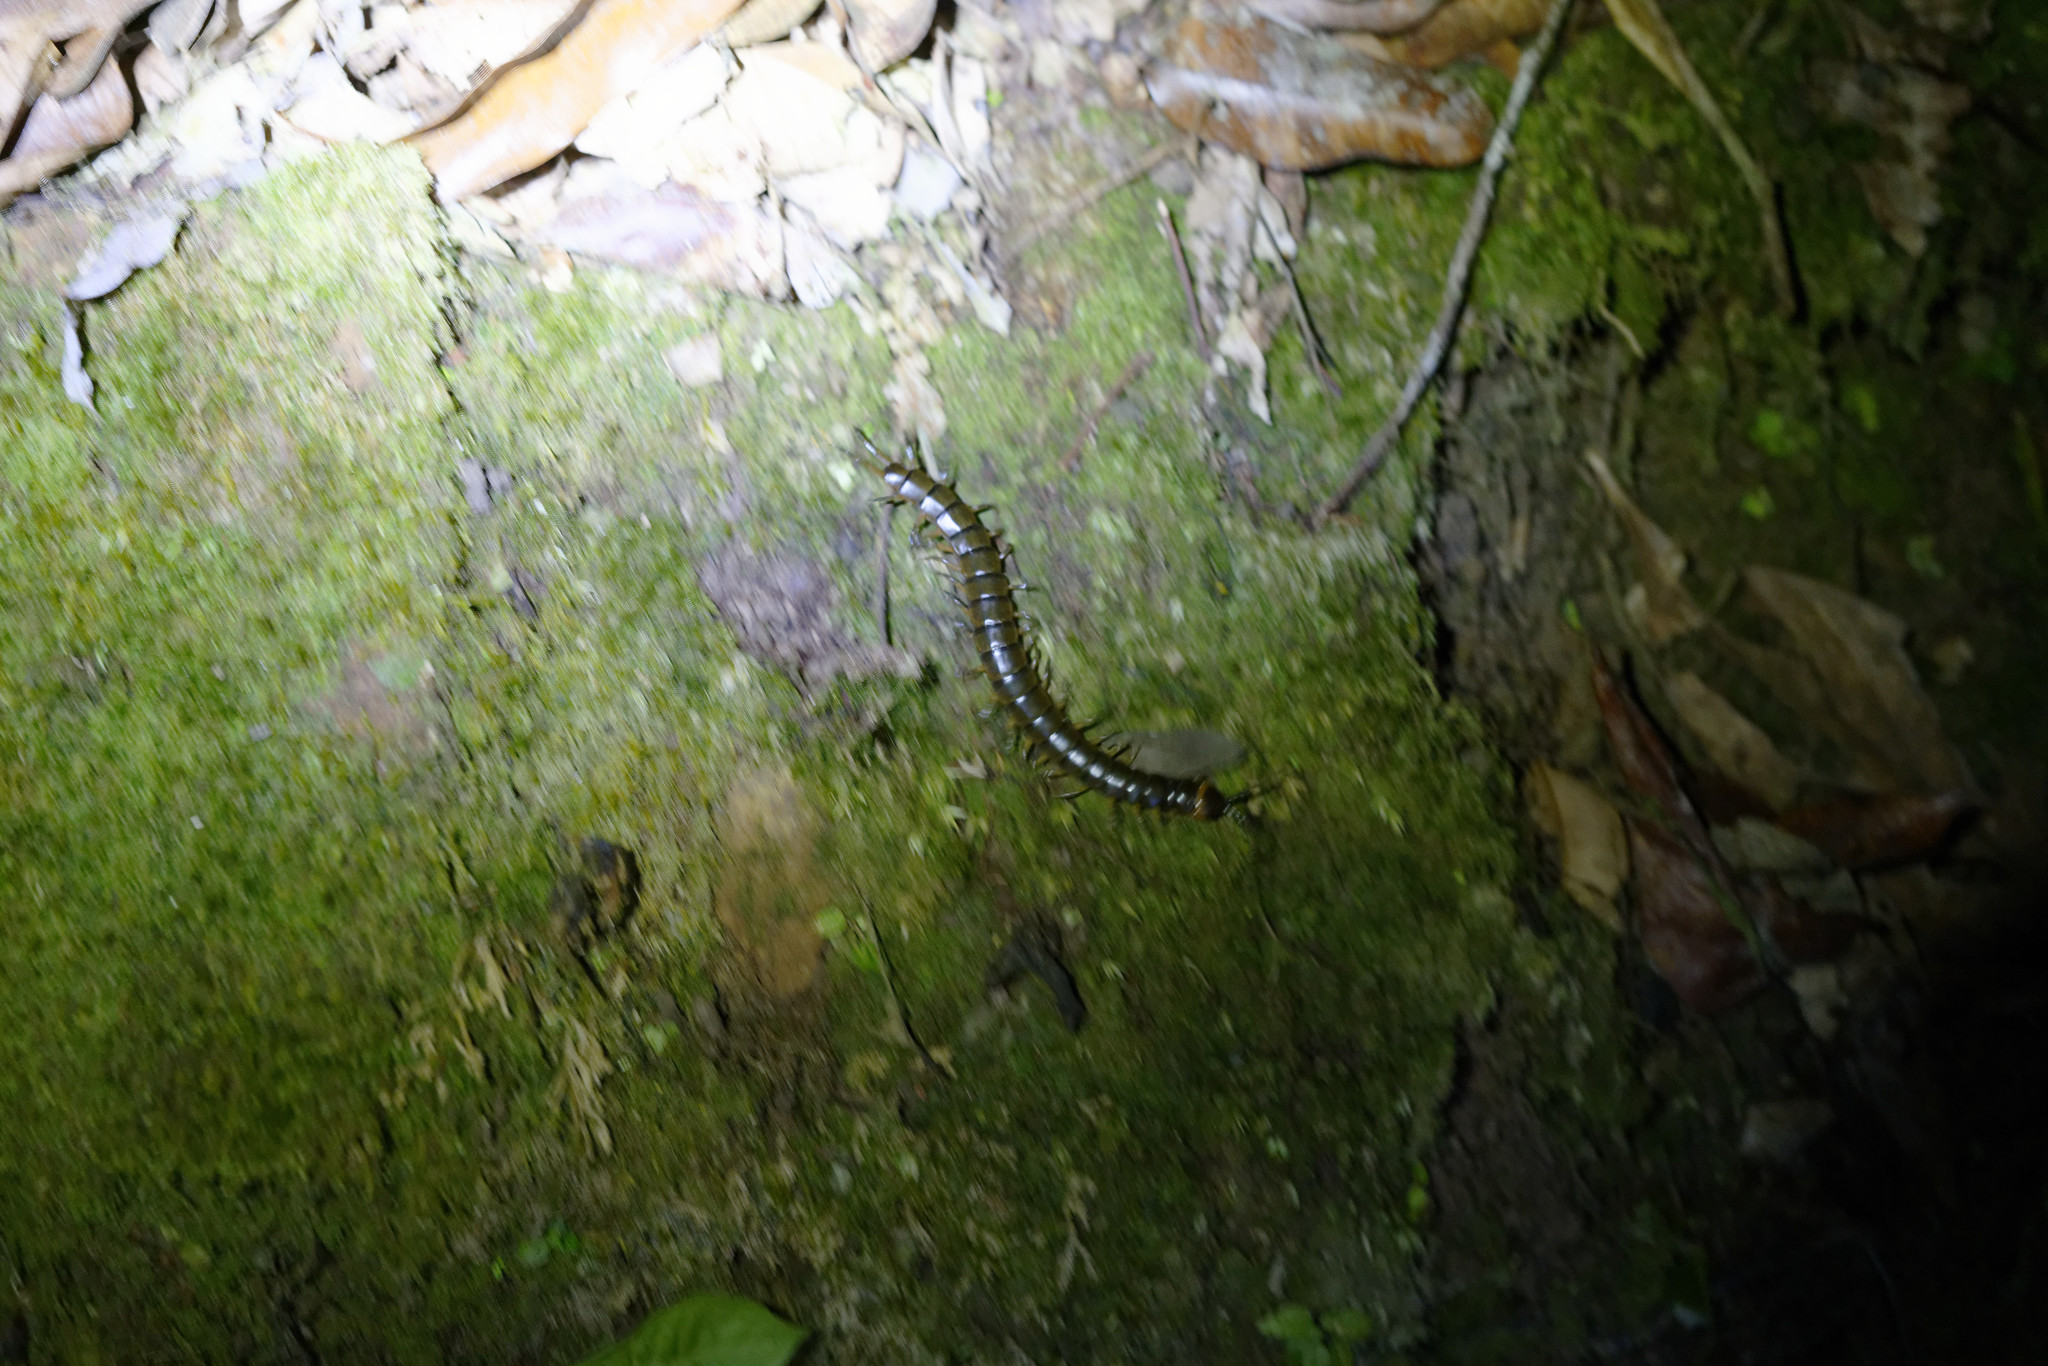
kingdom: Animalia
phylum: Arthropoda
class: Chilopoda
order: Scolopendromorpha
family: Scolopendridae
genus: Scolopendra
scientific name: Scolopendra hermosa
